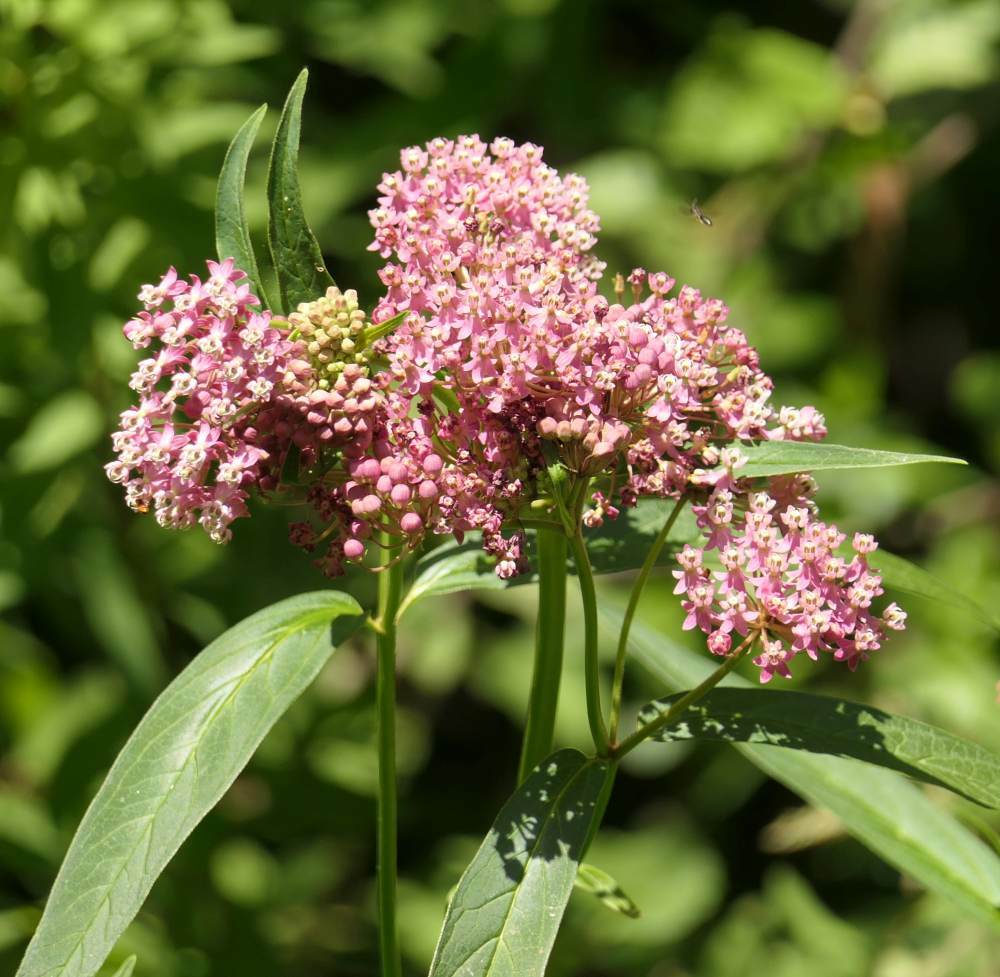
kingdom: Plantae
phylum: Tracheophyta
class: Magnoliopsida
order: Gentianales
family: Apocynaceae
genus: Asclepias
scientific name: Asclepias incarnata
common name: Swamp milkweed
